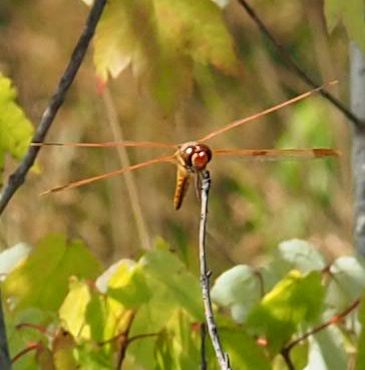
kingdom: Animalia
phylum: Arthropoda
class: Insecta
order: Odonata
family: Libellulidae
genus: Libellula
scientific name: Libellula semifasciata
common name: Painted skimmer
